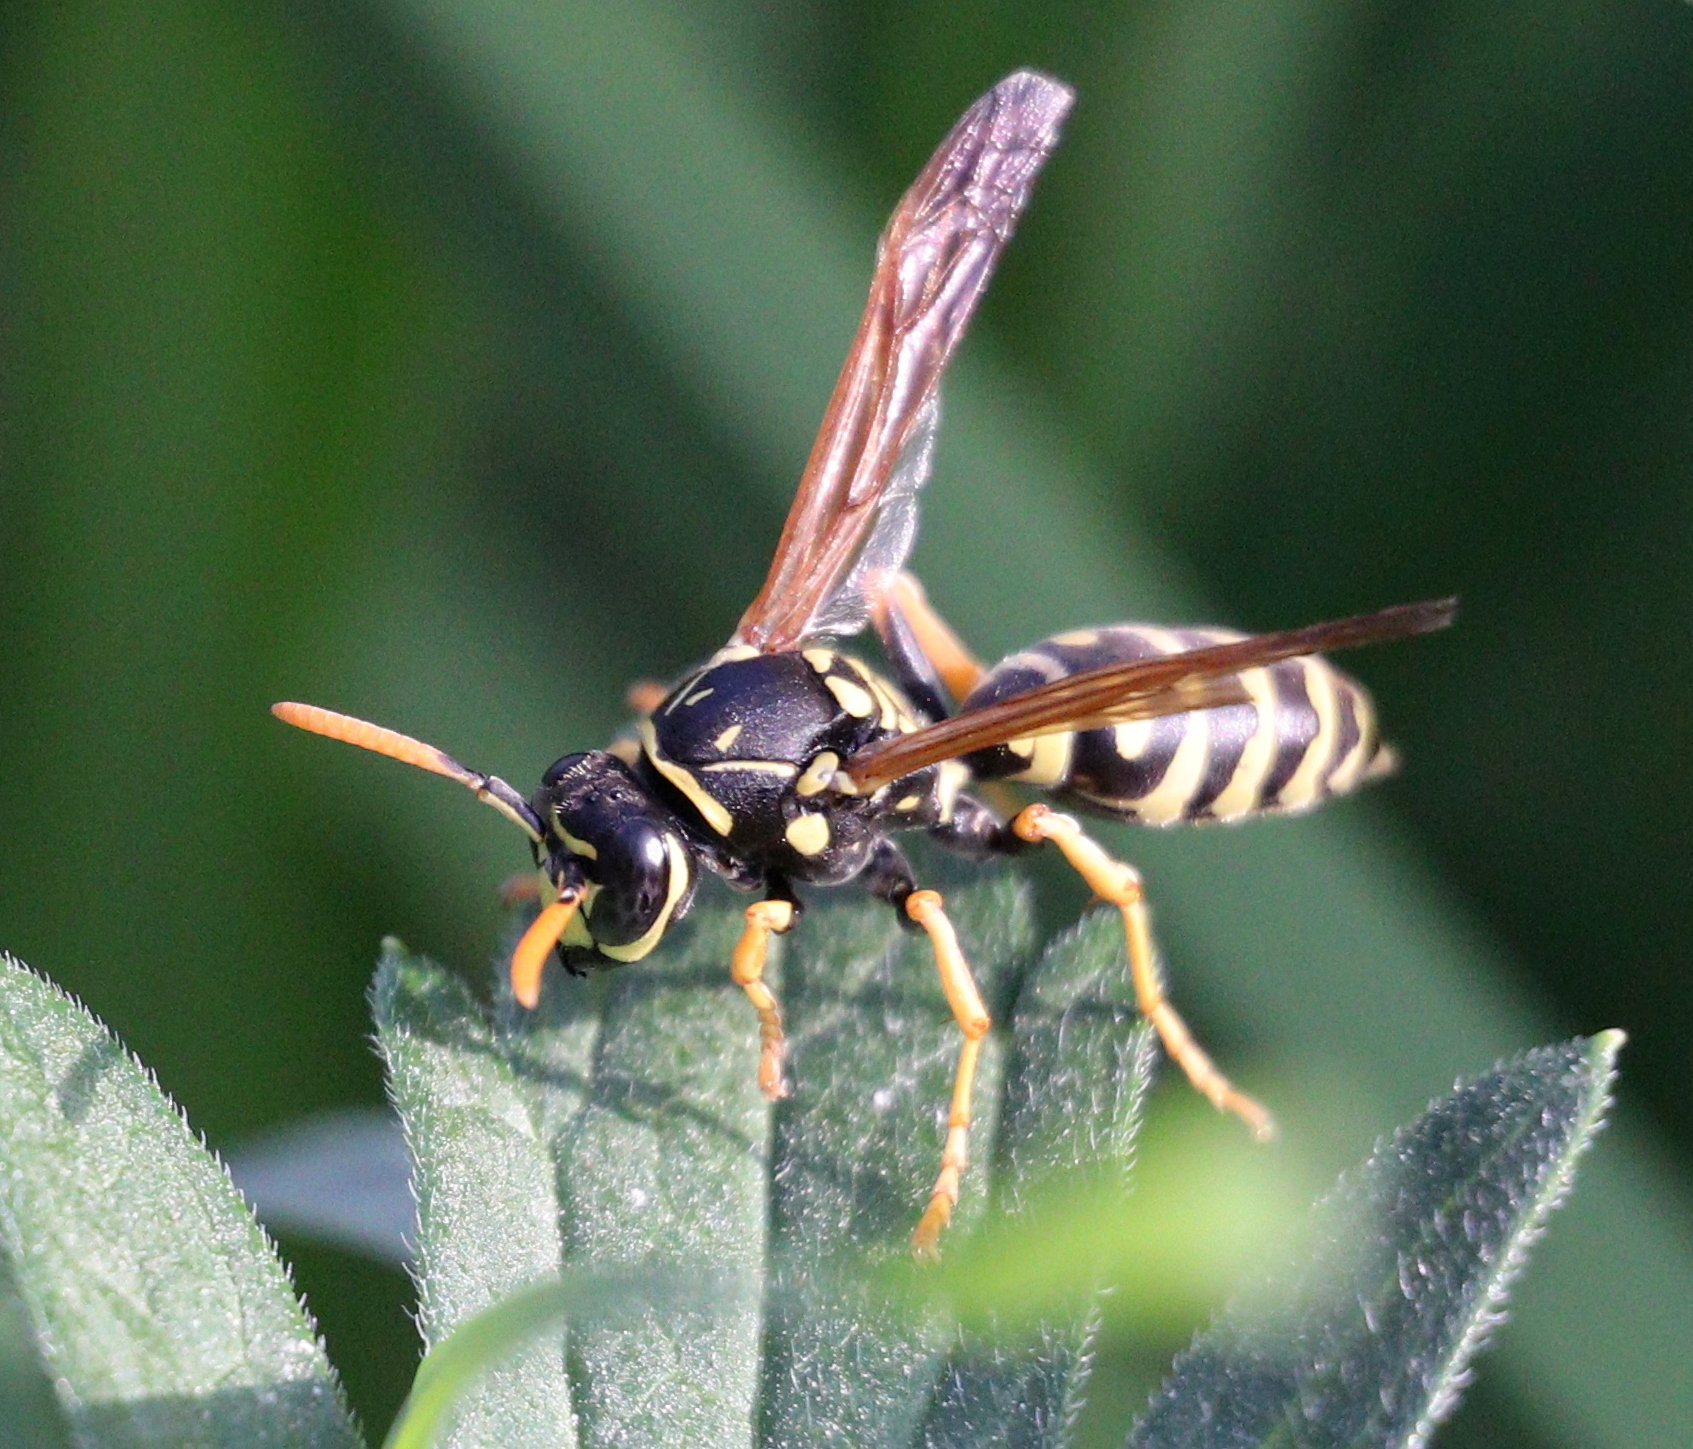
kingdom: Animalia
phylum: Arthropoda
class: Insecta
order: Hymenoptera
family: Eumenidae
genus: Polistes
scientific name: Polistes dominula
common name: Paper wasp
